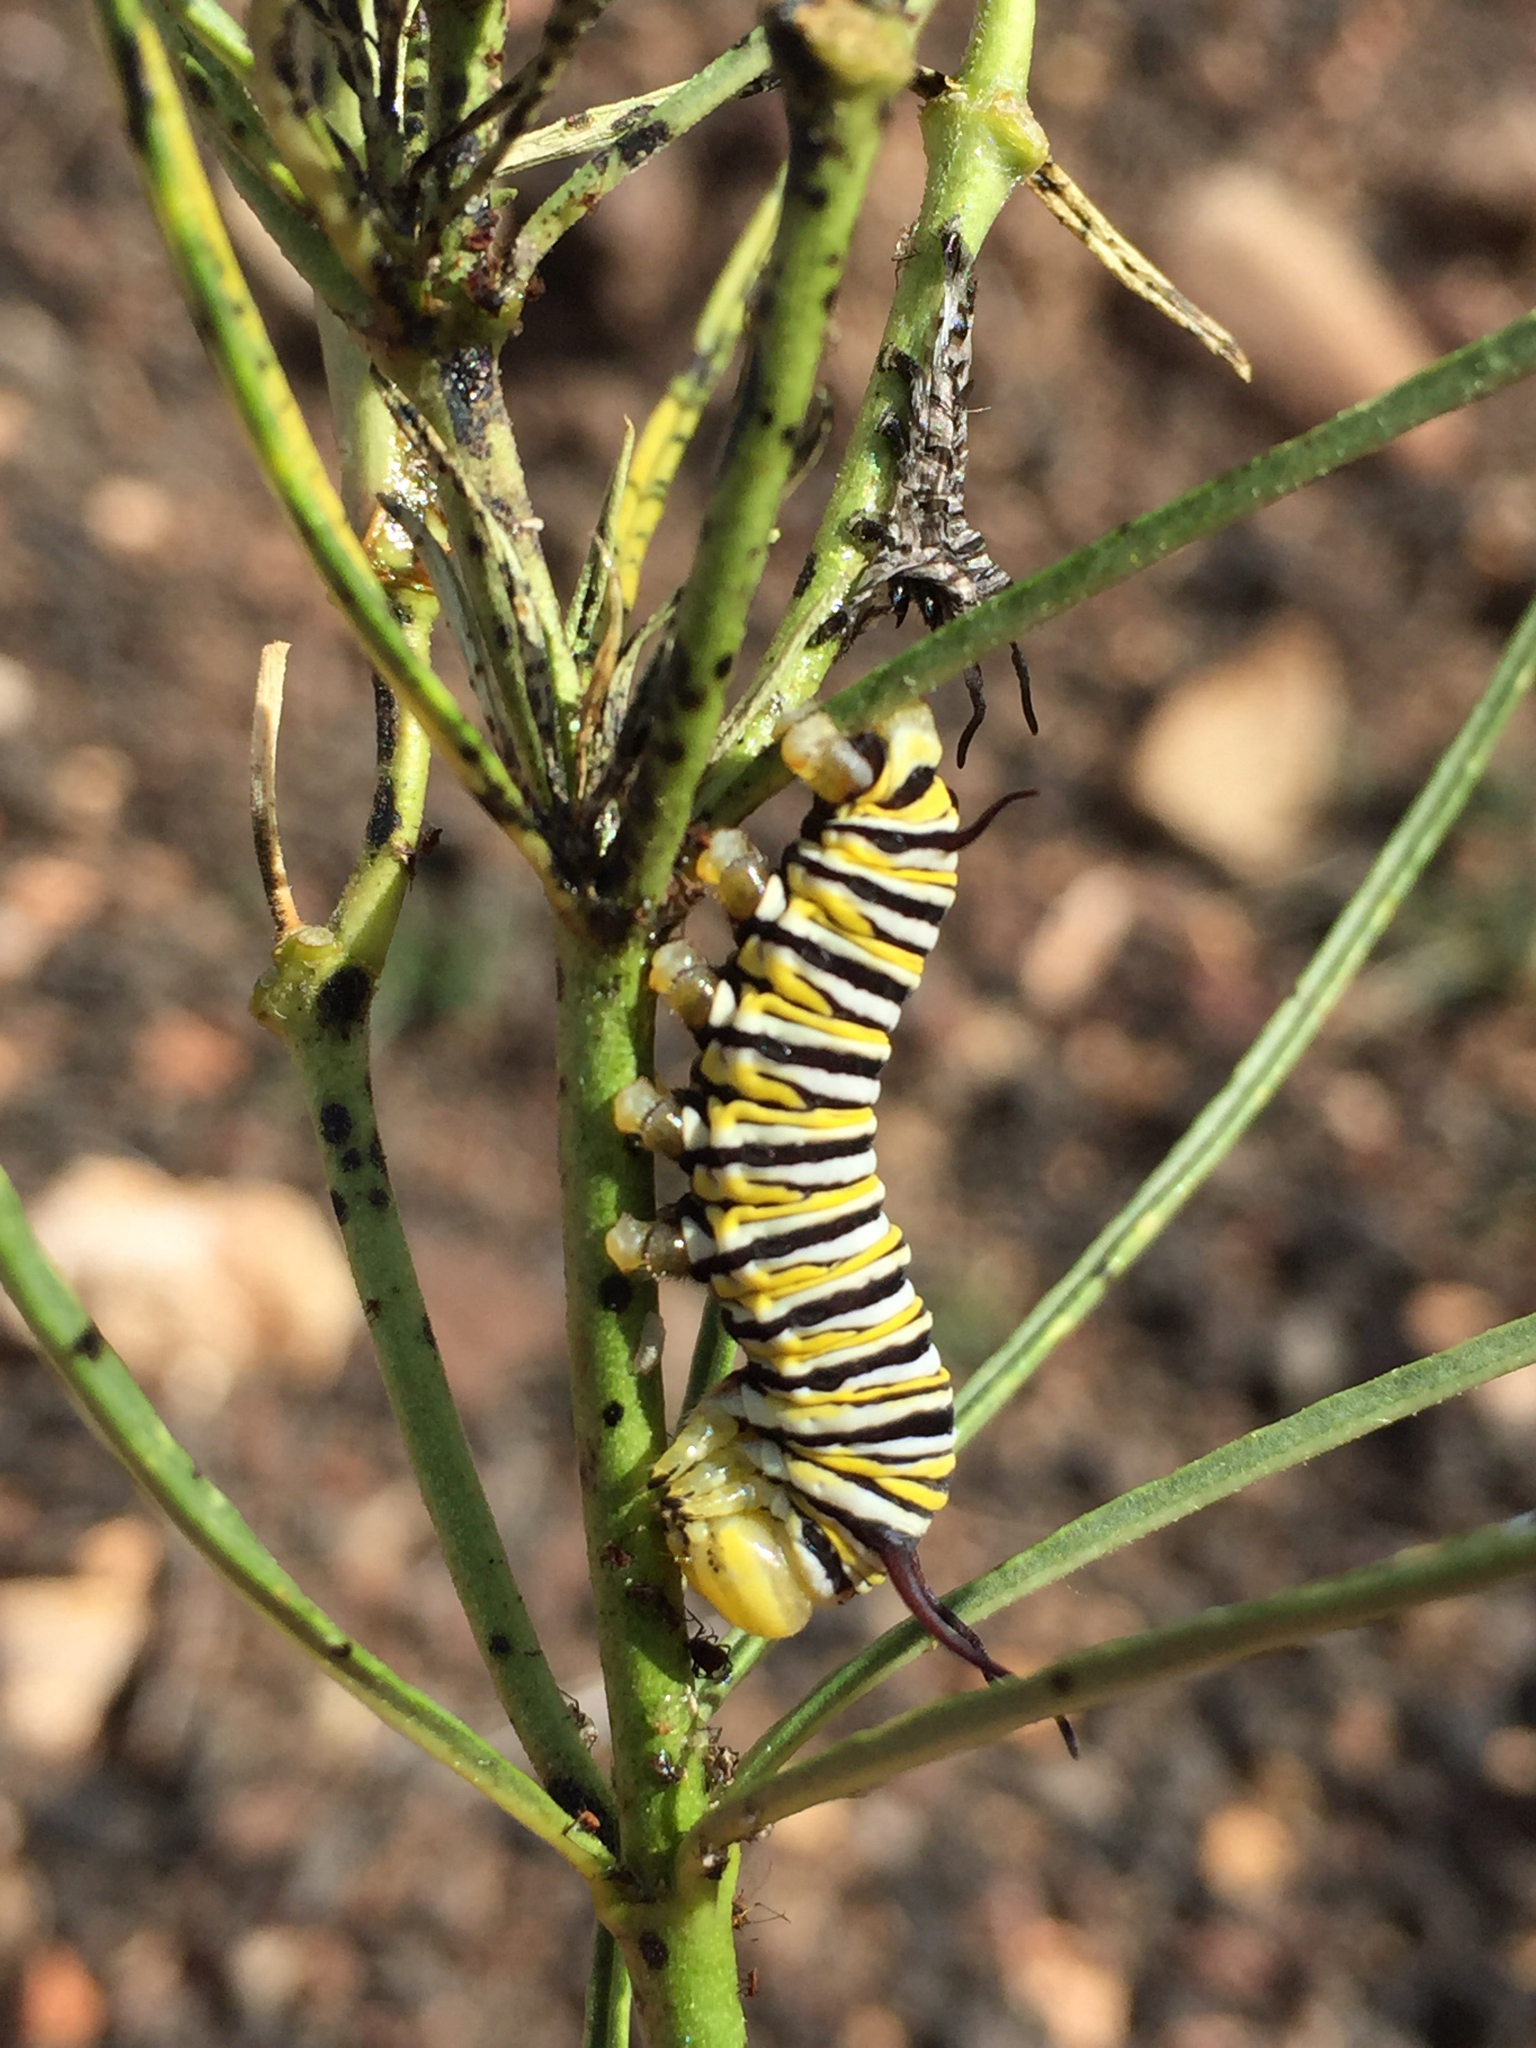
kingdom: Animalia
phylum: Arthropoda
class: Insecta
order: Lepidoptera
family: Nymphalidae
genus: Danaus
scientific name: Danaus plexippus
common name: Monarch
